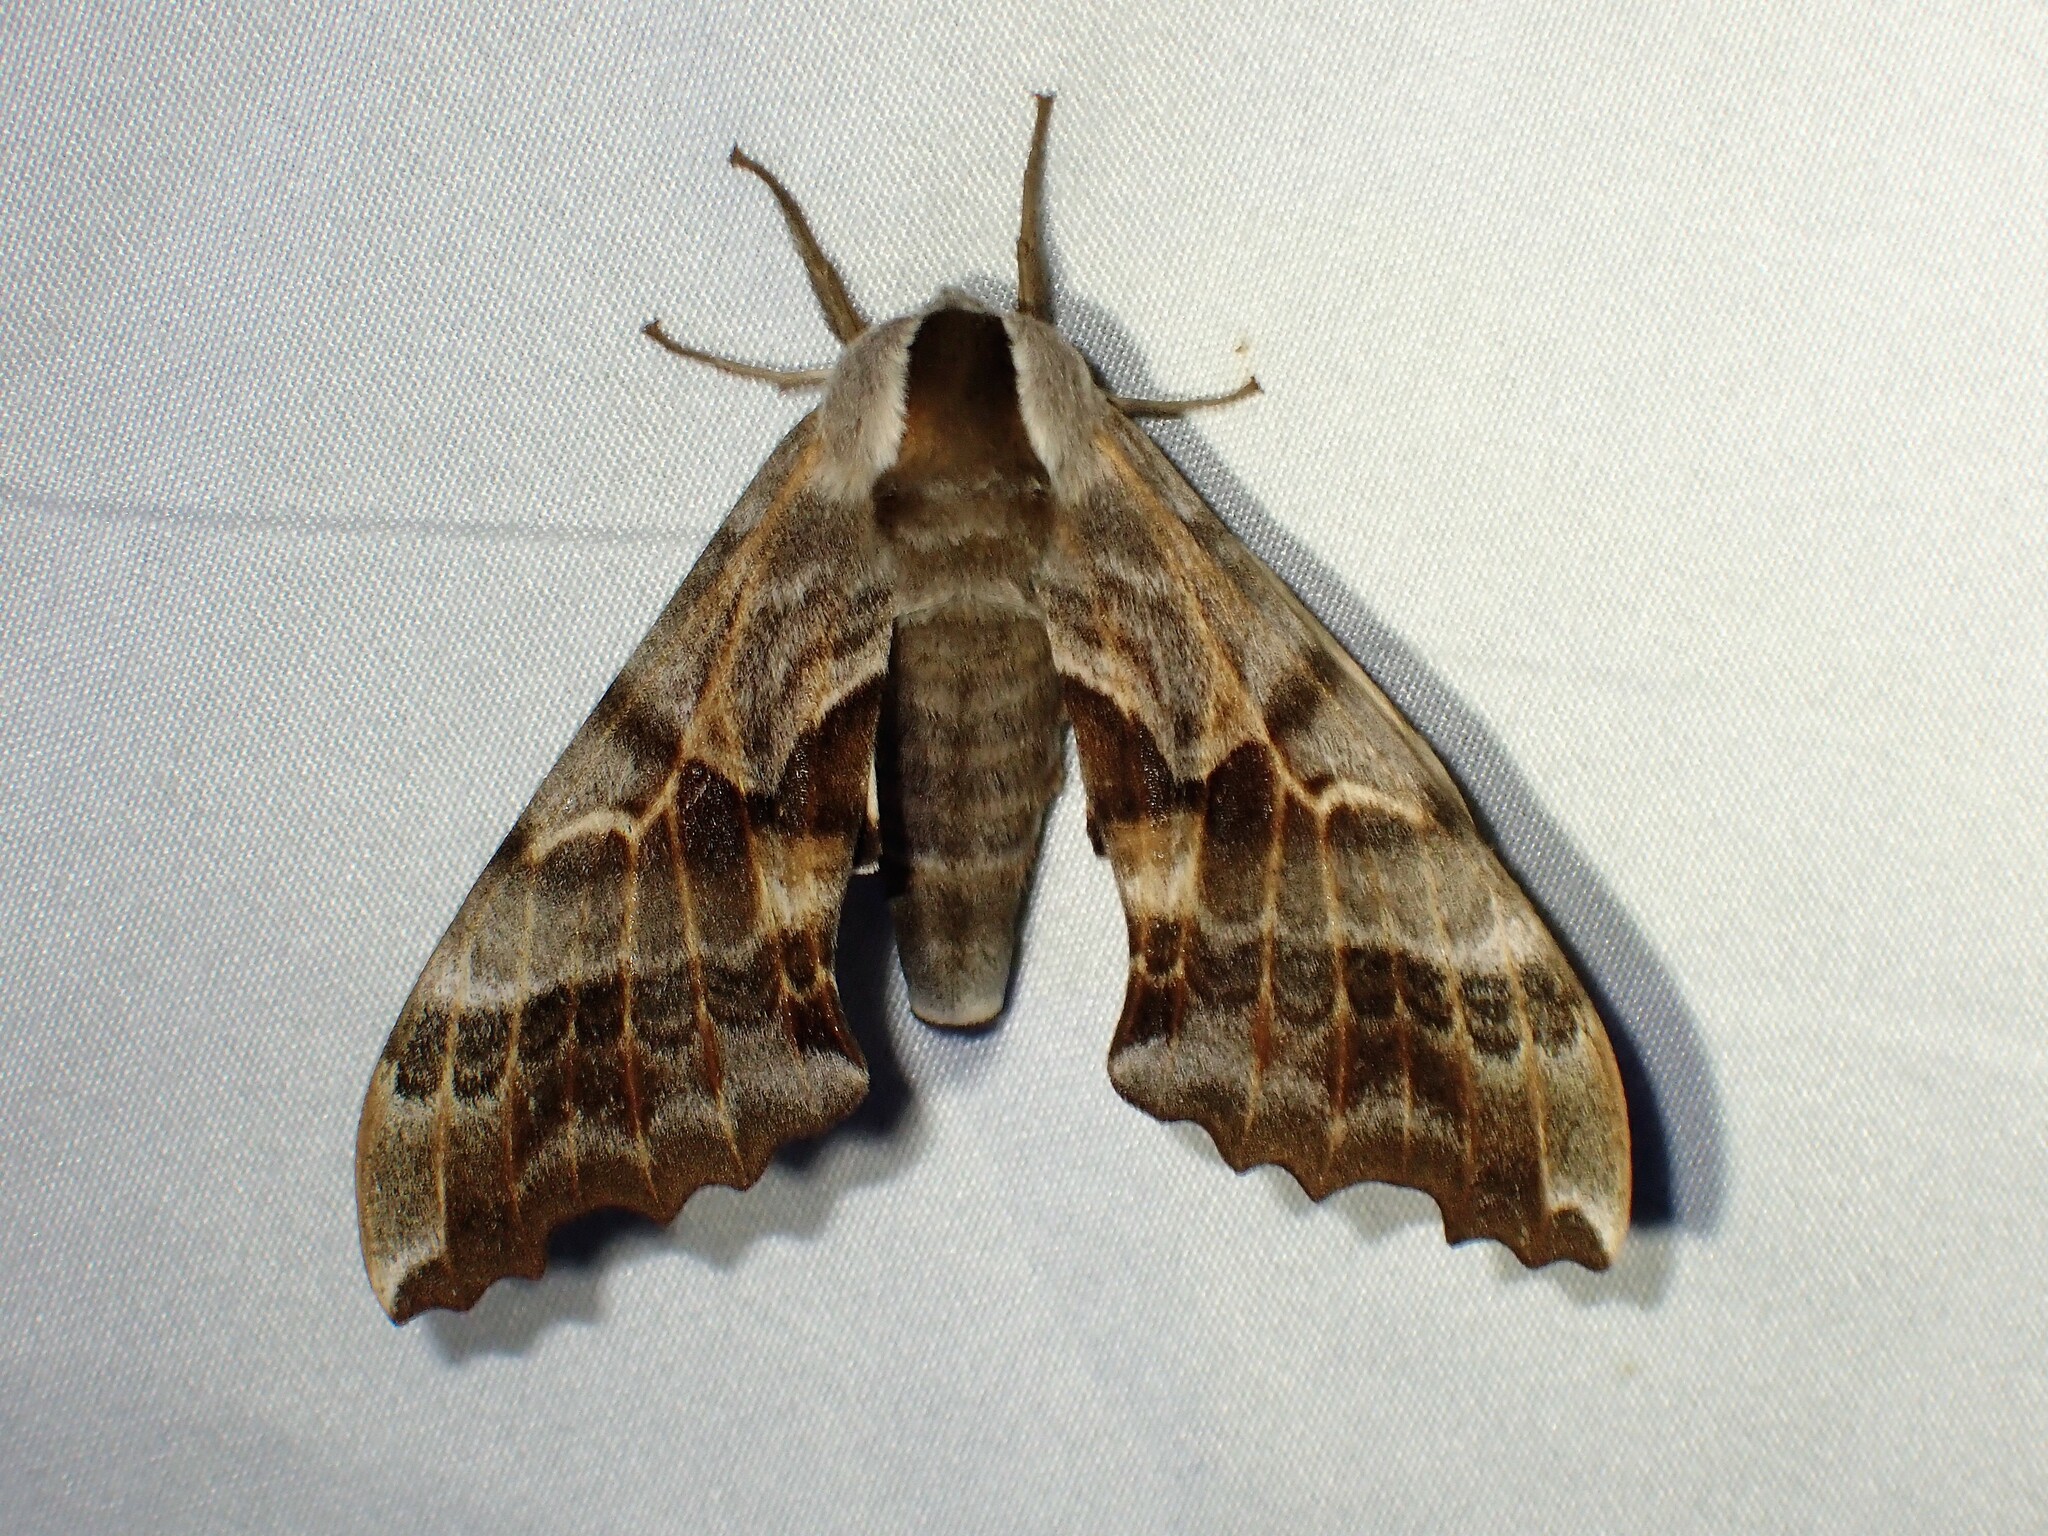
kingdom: Animalia
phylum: Arthropoda
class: Insecta
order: Lepidoptera
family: Sphingidae
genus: Smerinthus
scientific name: Smerinthus cerisyi
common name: Cerisy's sphinx moth
